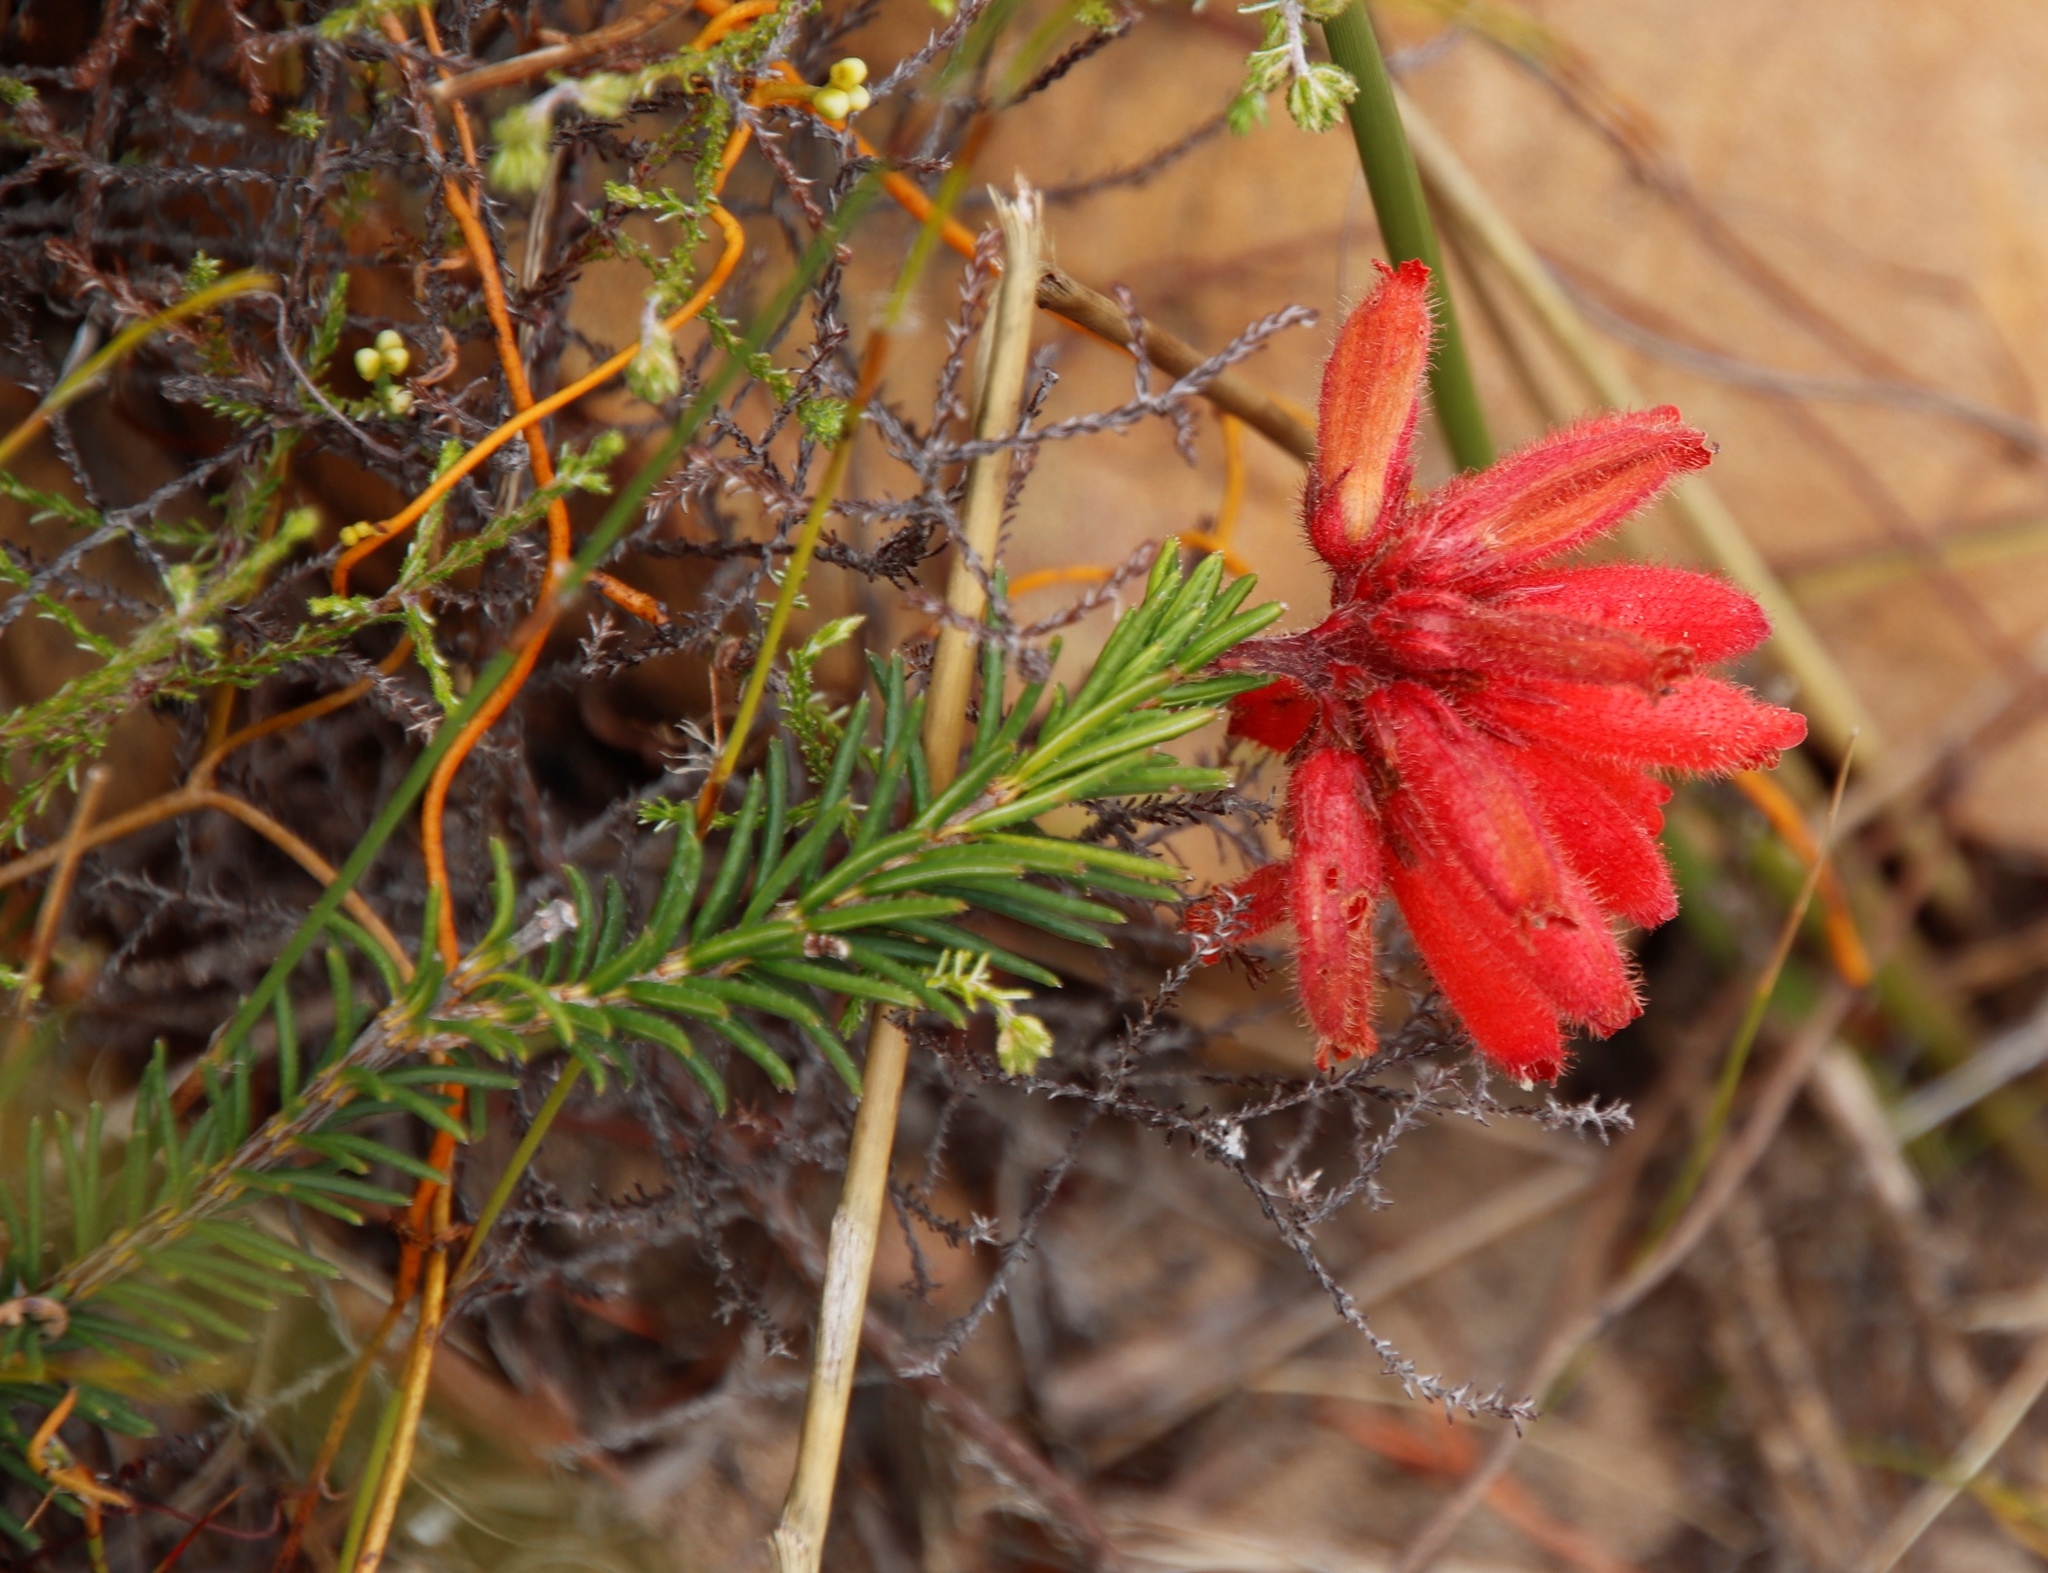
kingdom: Plantae
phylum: Tracheophyta
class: Magnoliopsida
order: Ericales
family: Ericaceae
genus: Erica
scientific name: Erica cerinthoides
